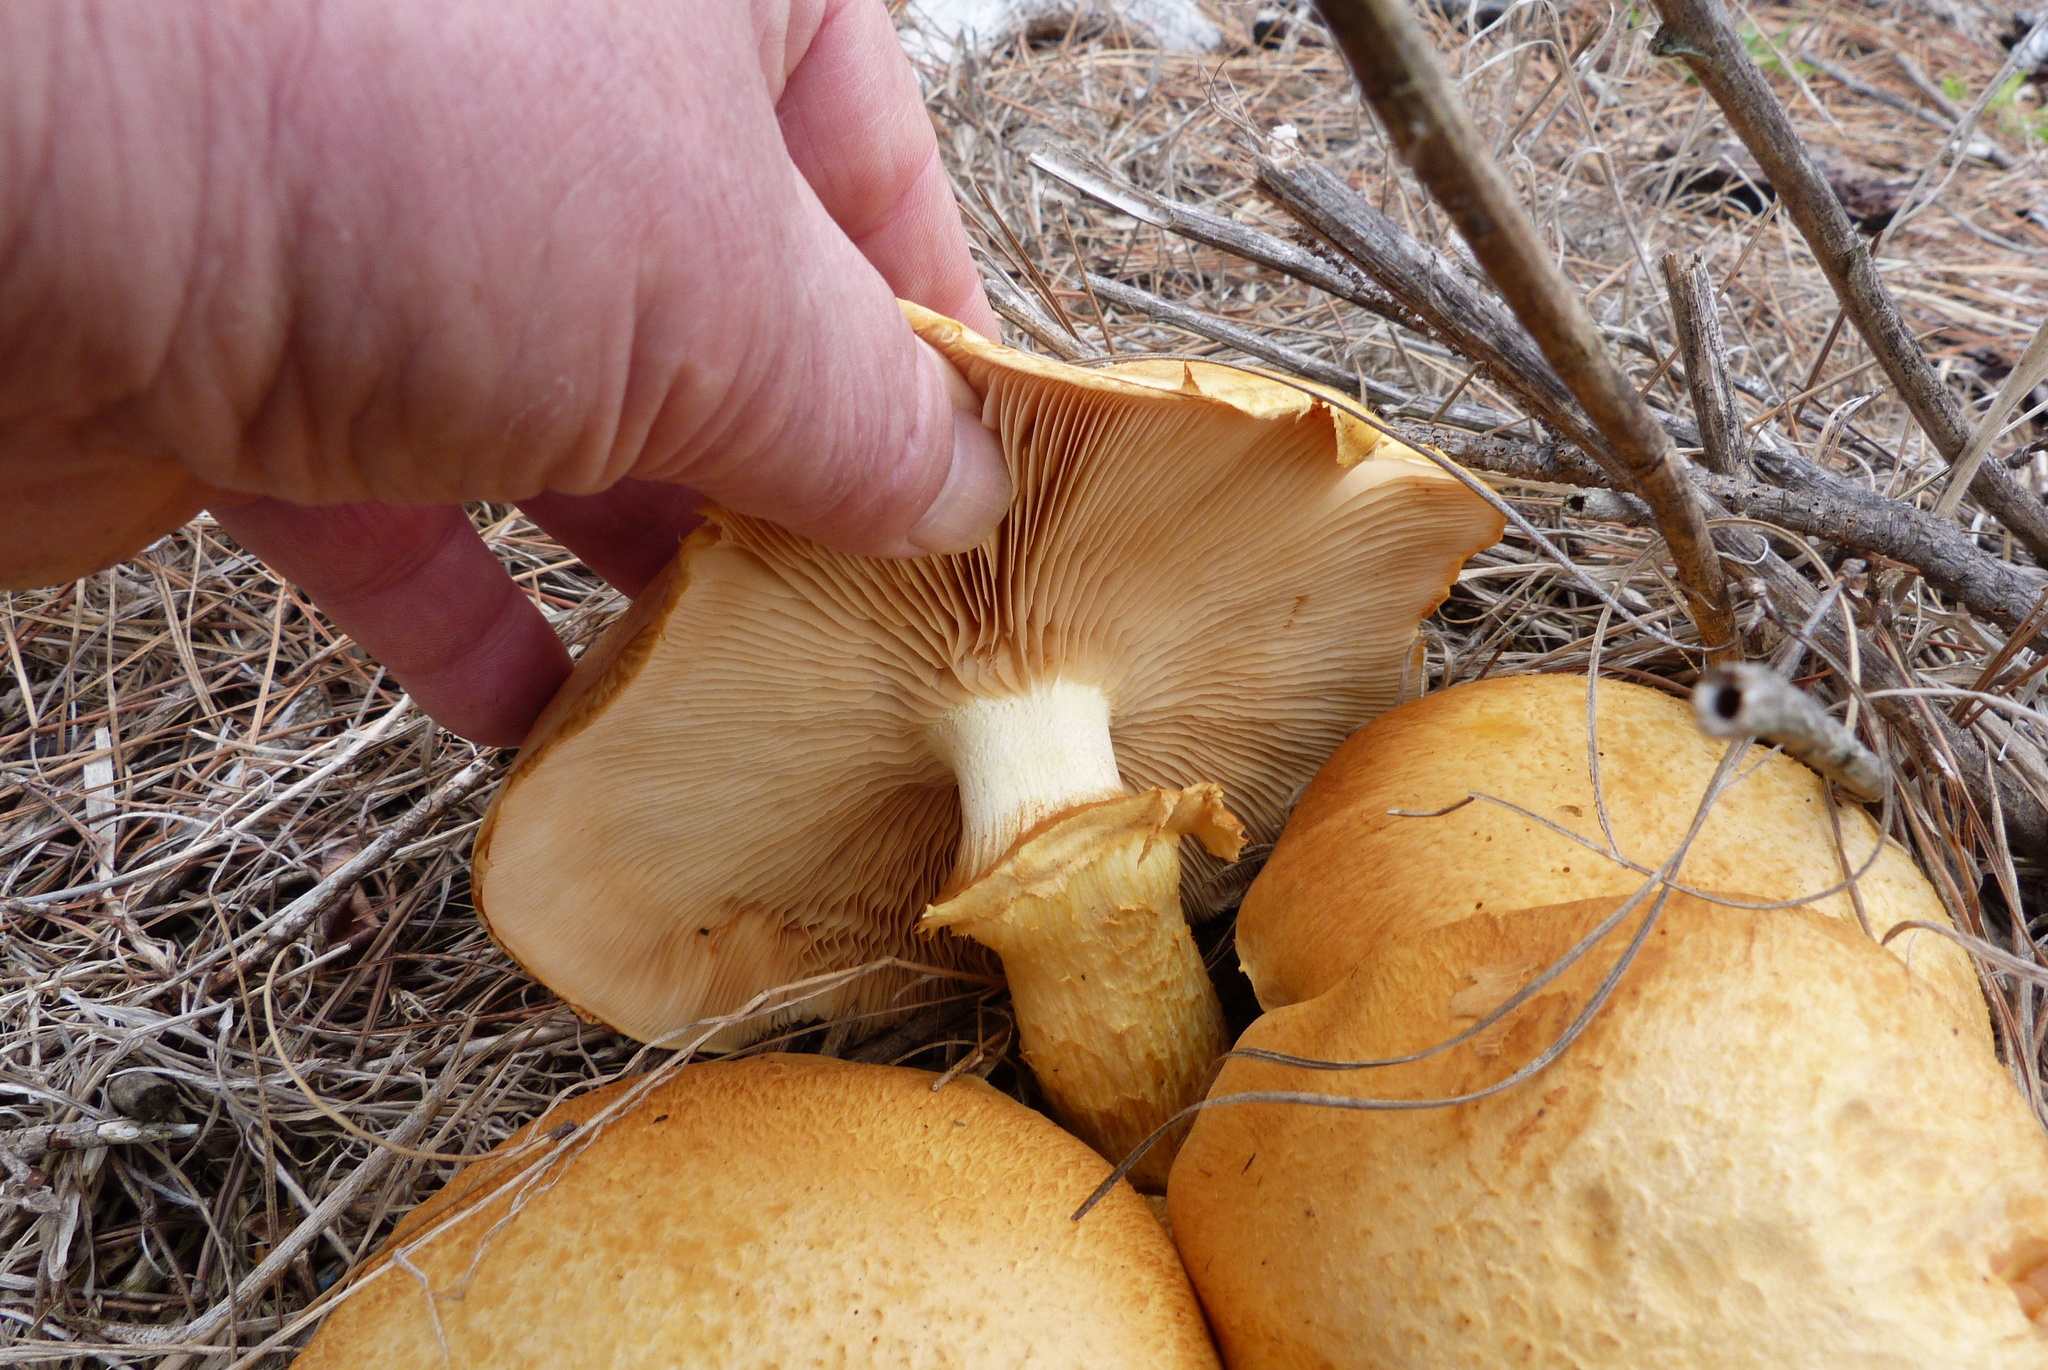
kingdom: Fungi
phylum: Basidiomycota
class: Agaricomycetes
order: Agaricales
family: Hymenogastraceae
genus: Gymnopilus
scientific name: Gymnopilus junonius
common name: Spectacular rustgill
